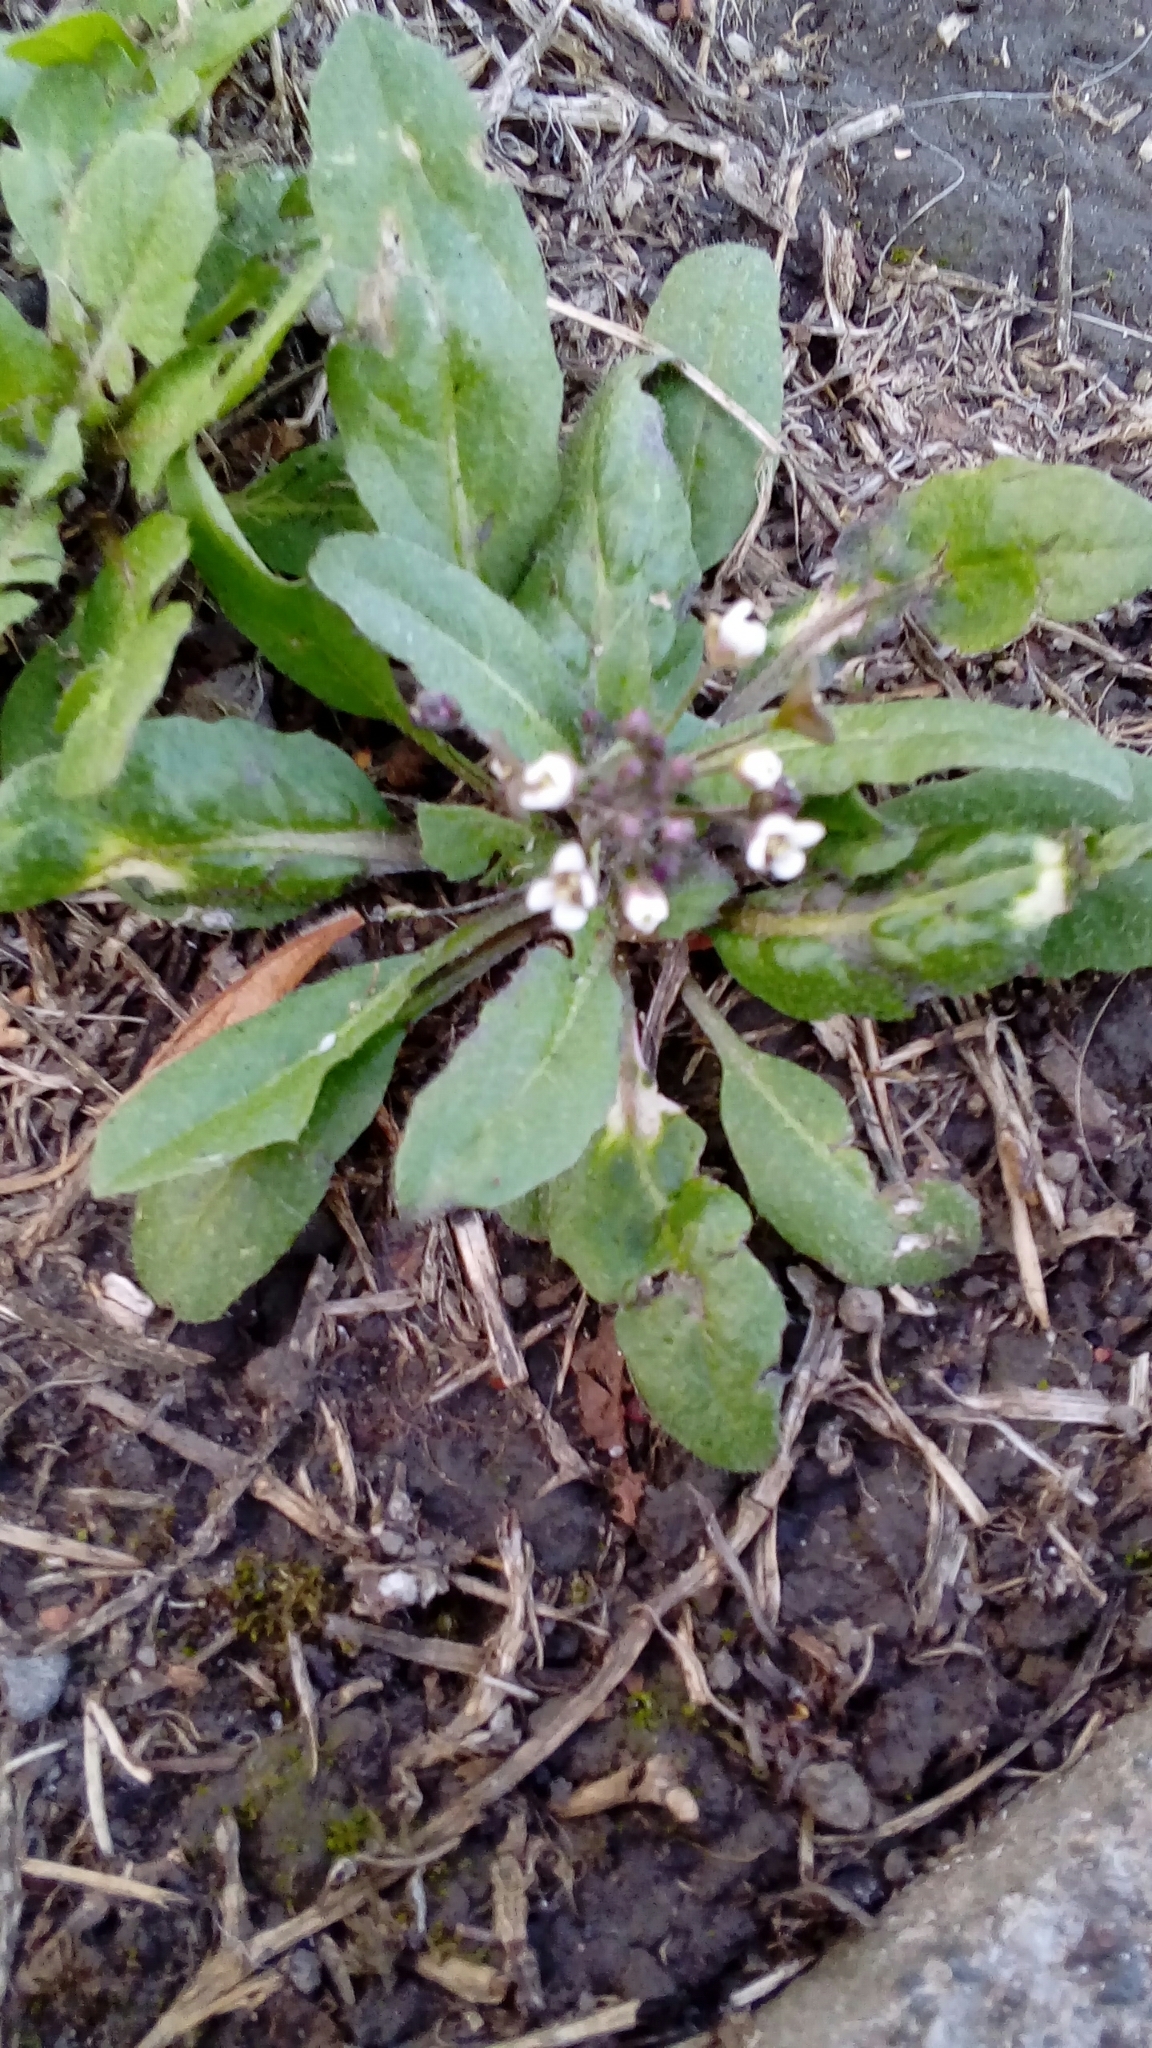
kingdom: Plantae
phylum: Tracheophyta
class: Magnoliopsida
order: Brassicales
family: Brassicaceae
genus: Capsella
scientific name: Capsella bursa-pastoris
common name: Shepherd's purse
